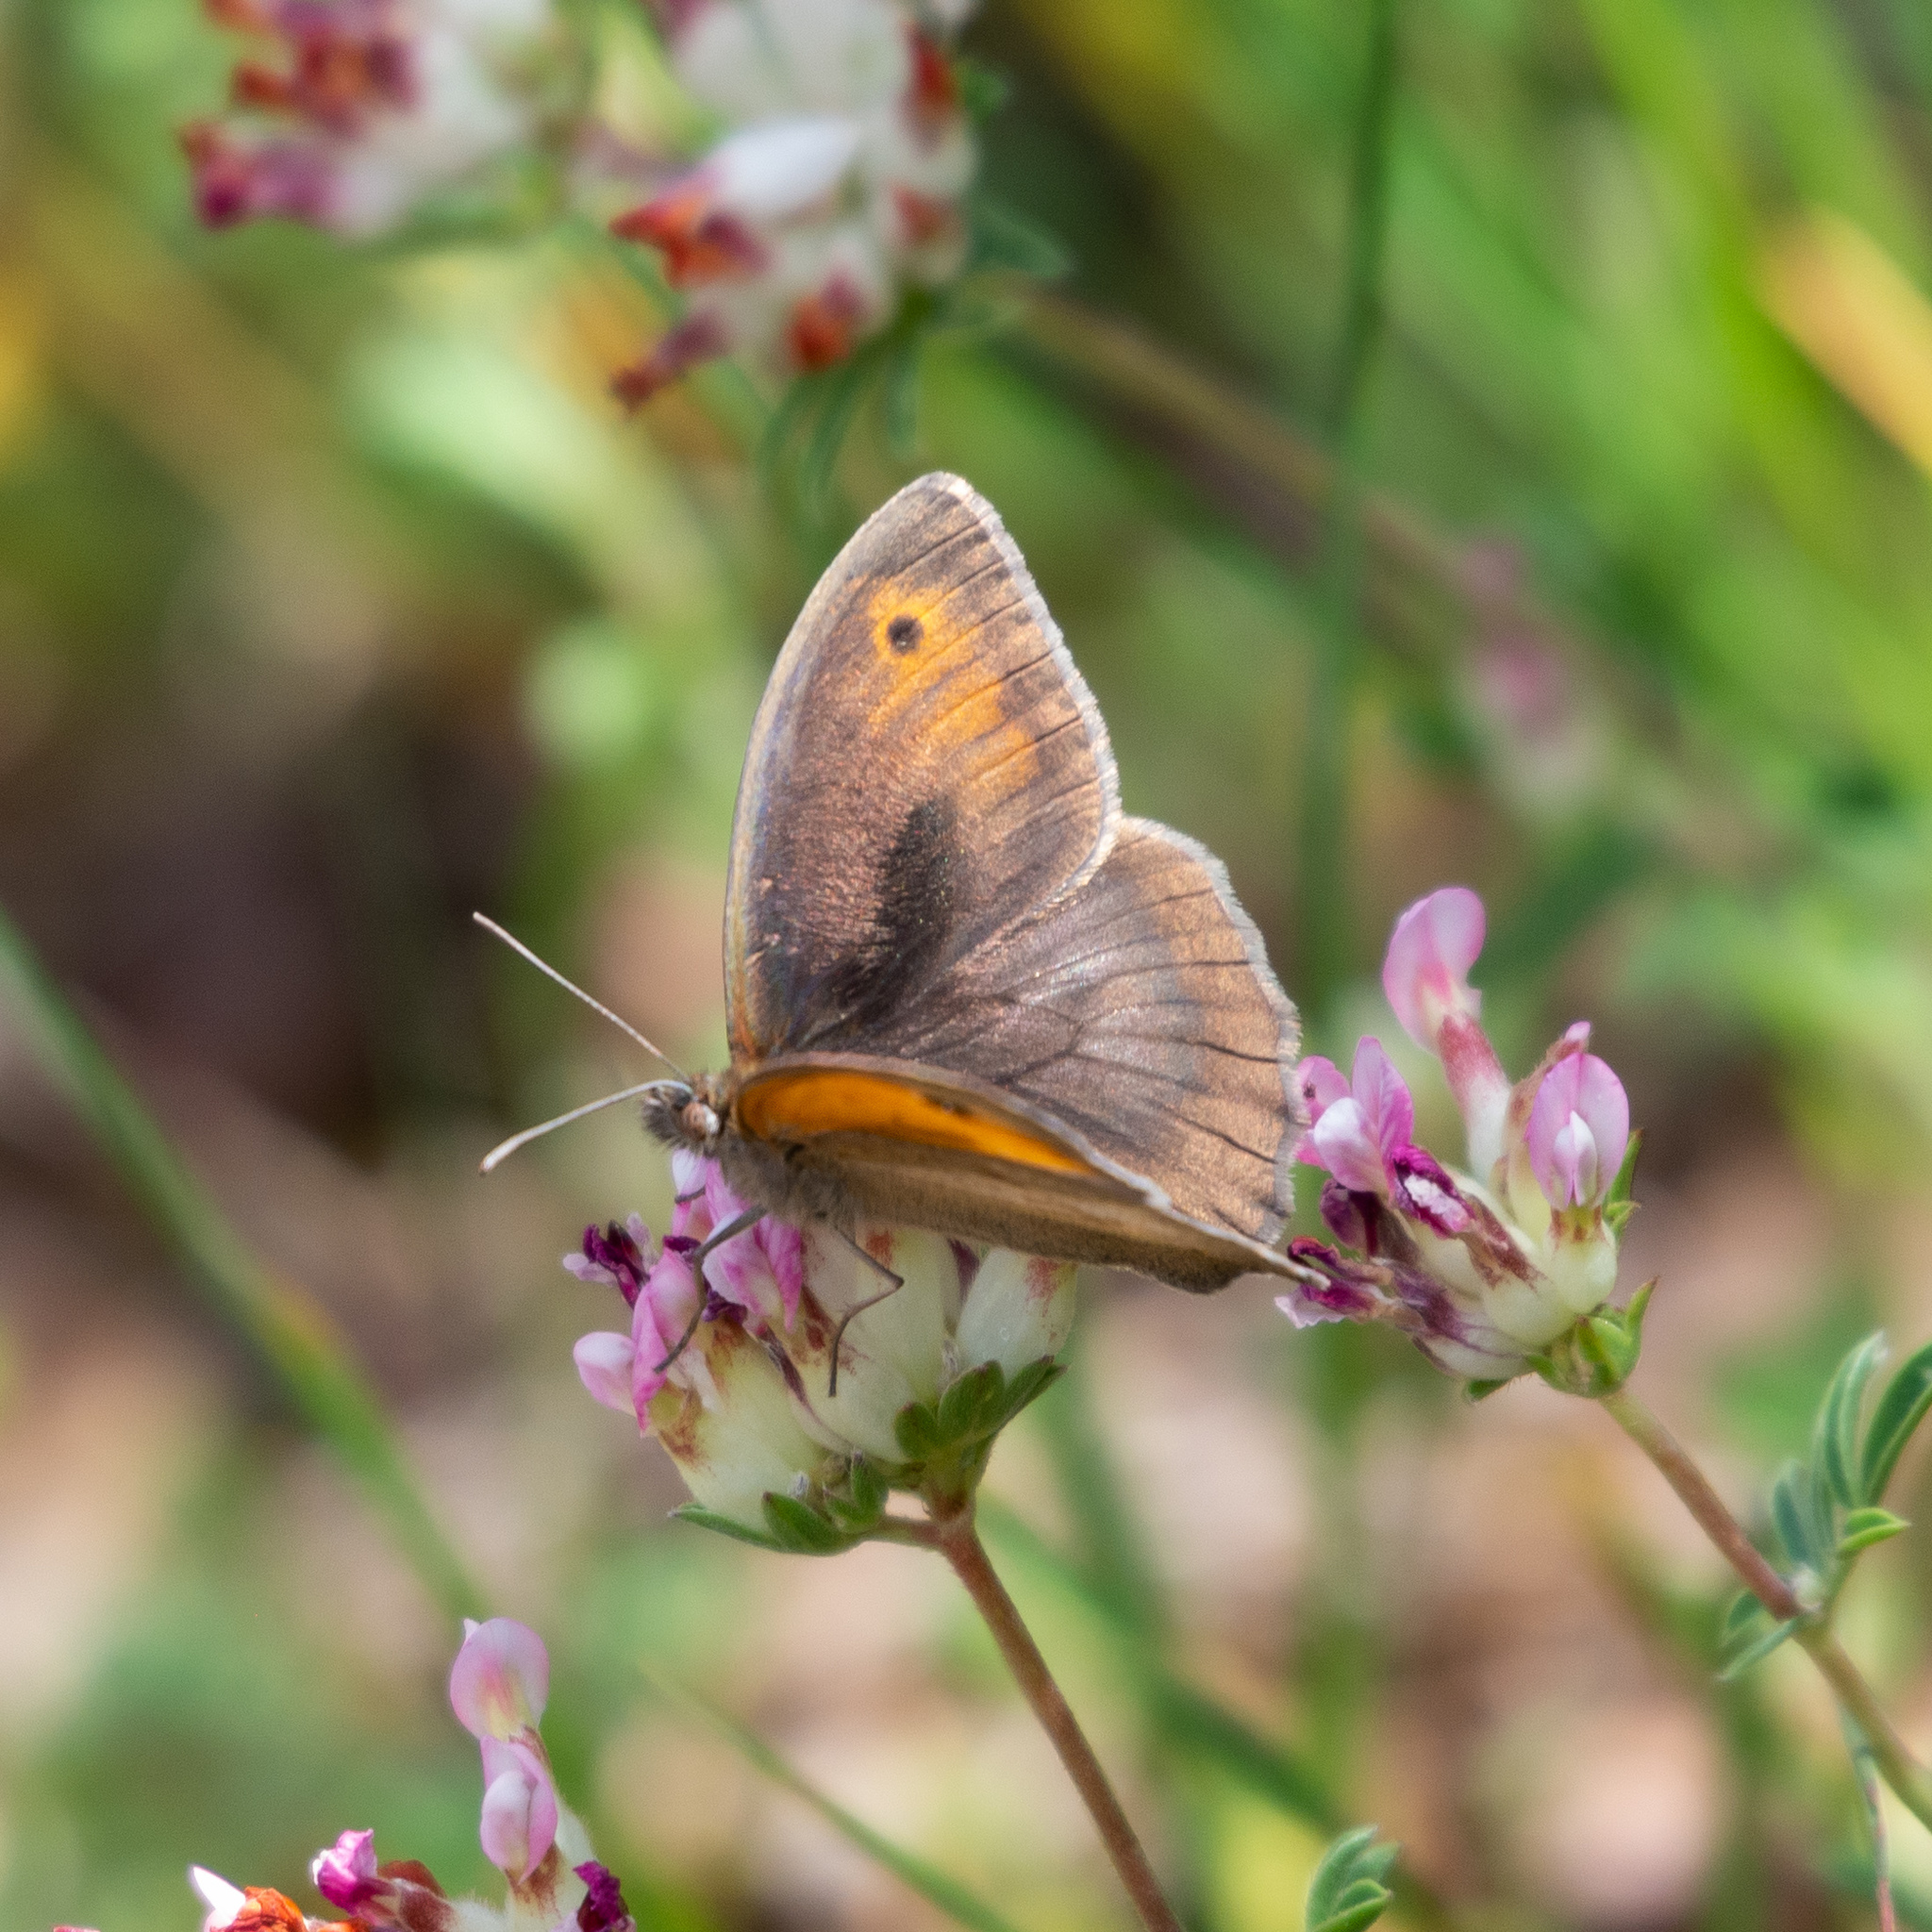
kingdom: Animalia
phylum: Arthropoda
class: Insecta
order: Lepidoptera
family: Nymphalidae
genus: Maniola
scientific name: Maniola jurtina
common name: Meadow brown
